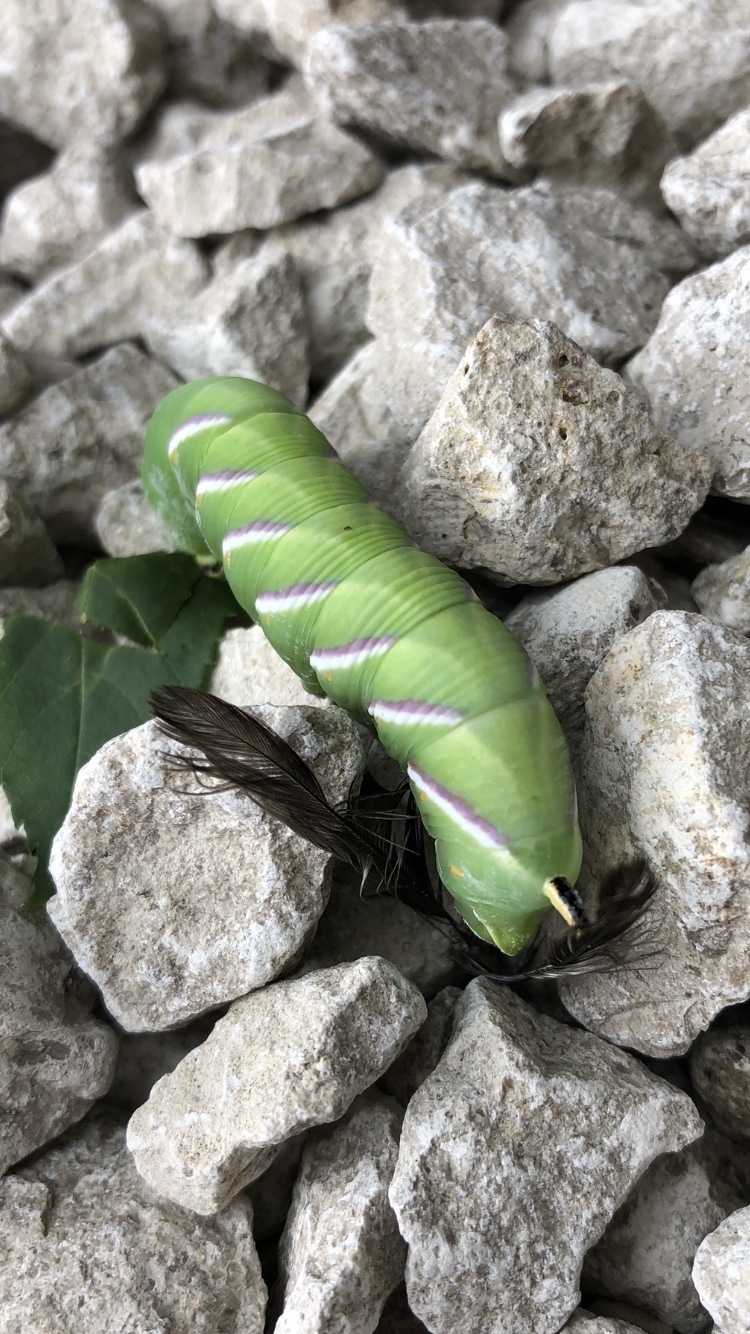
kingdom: Animalia
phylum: Arthropoda
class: Insecta
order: Lepidoptera
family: Sphingidae
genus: Sphinx
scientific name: Sphinx ligustri
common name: Privet hawk-moth
